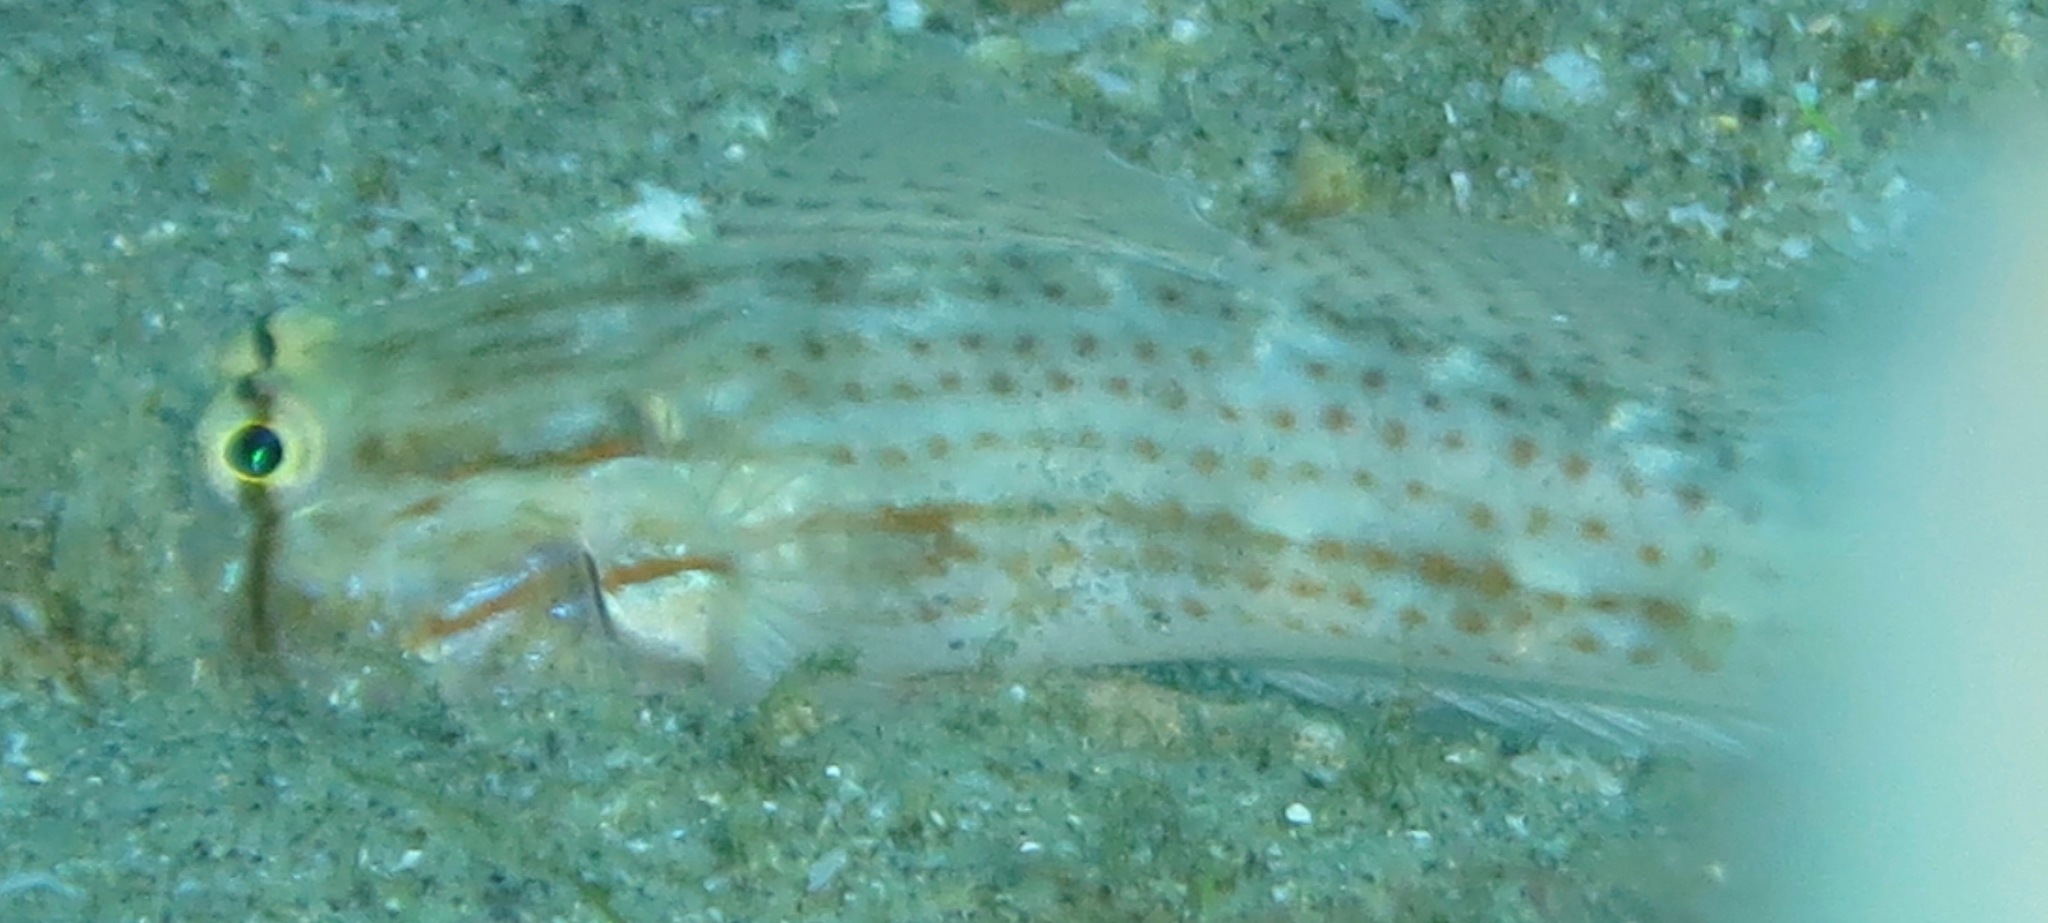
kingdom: Animalia
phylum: Chordata
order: Perciformes
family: Gobiidae
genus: Gnatholepis
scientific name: Gnatholepis cauerensis
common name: Bridled goby
